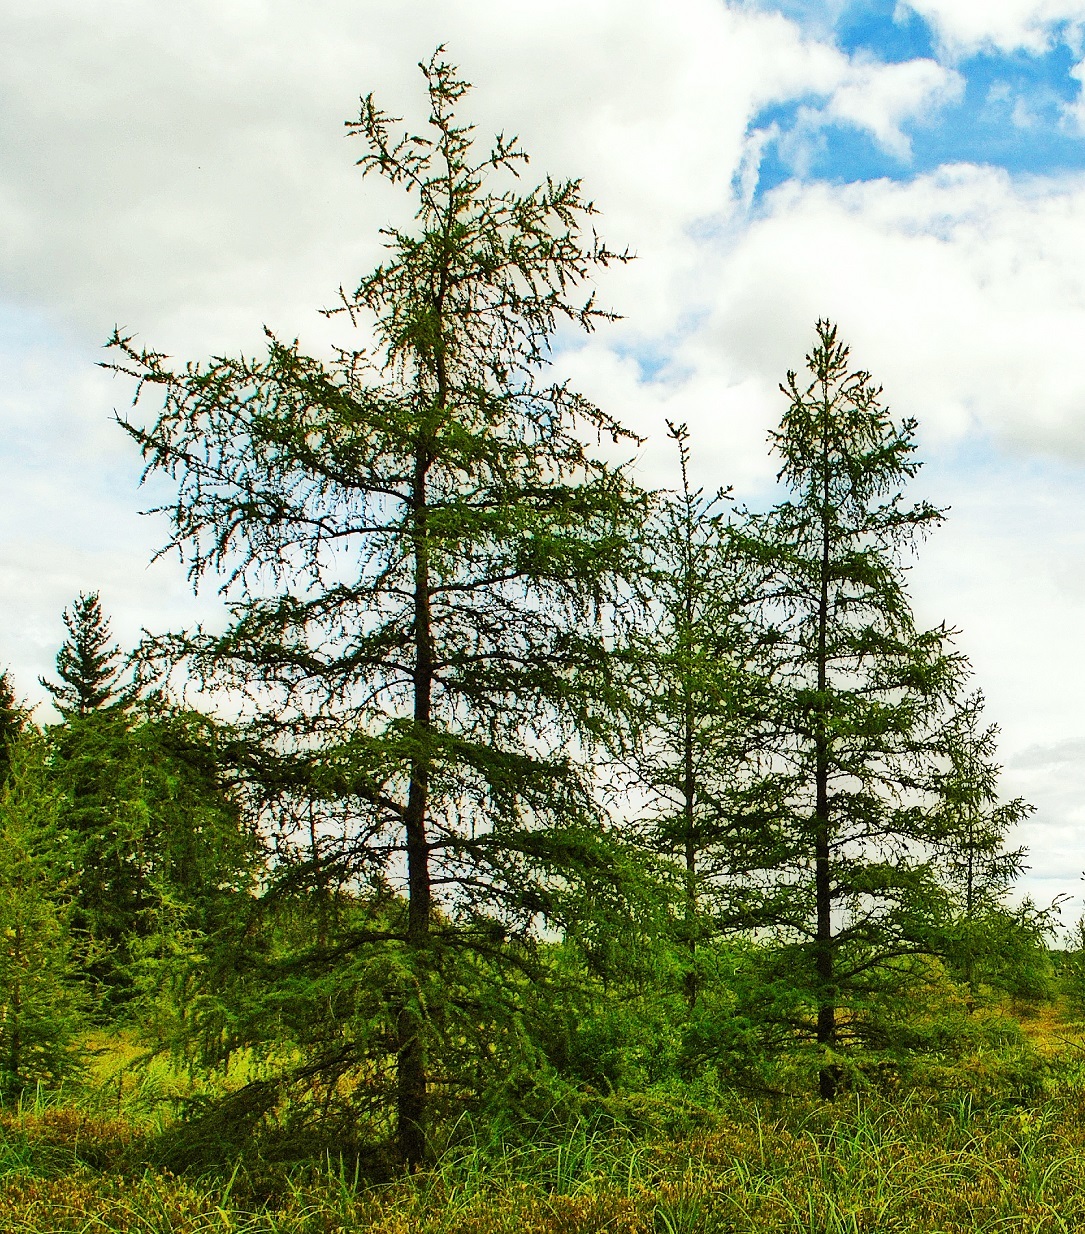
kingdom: Plantae
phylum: Tracheophyta
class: Pinopsida
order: Pinales
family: Pinaceae
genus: Larix
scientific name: Larix laricina
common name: American larch
